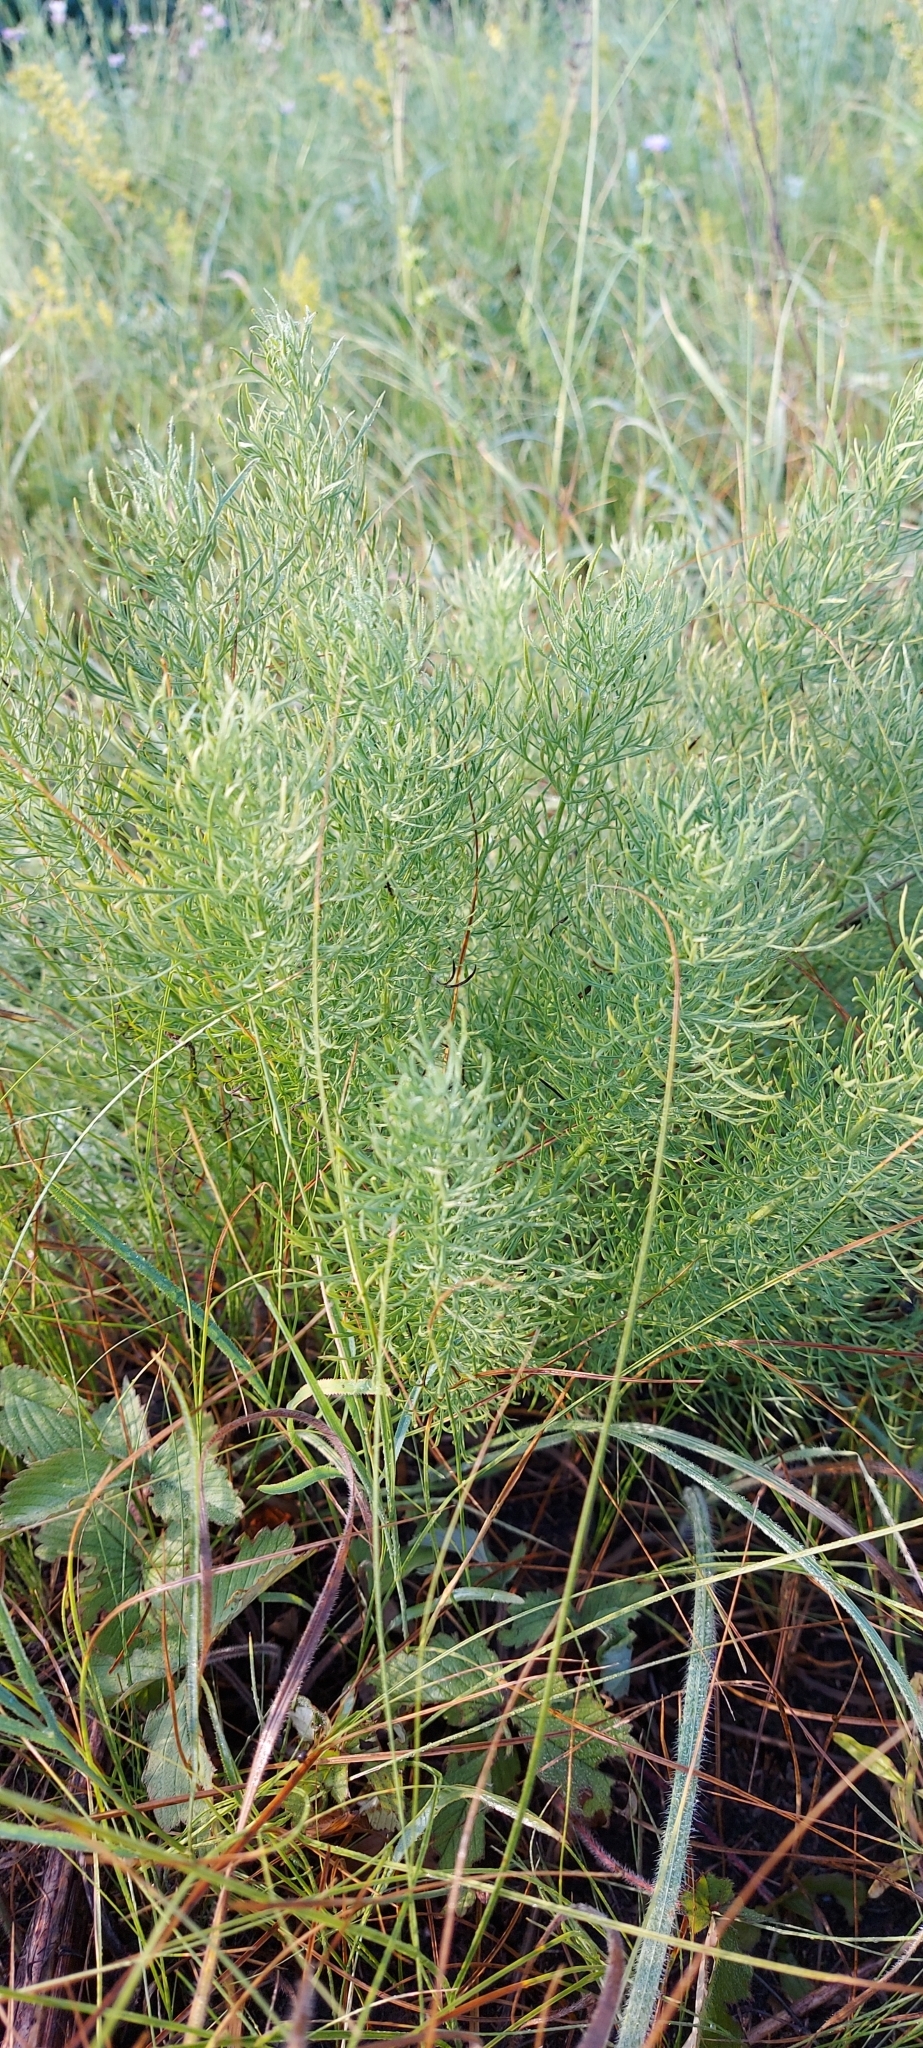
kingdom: Plantae
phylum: Tracheophyta
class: Magnoliopsida
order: Ranunculales
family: Ranunculaceae
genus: Adonis
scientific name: Adonis vernalis
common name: Yellow pheasants-eye
